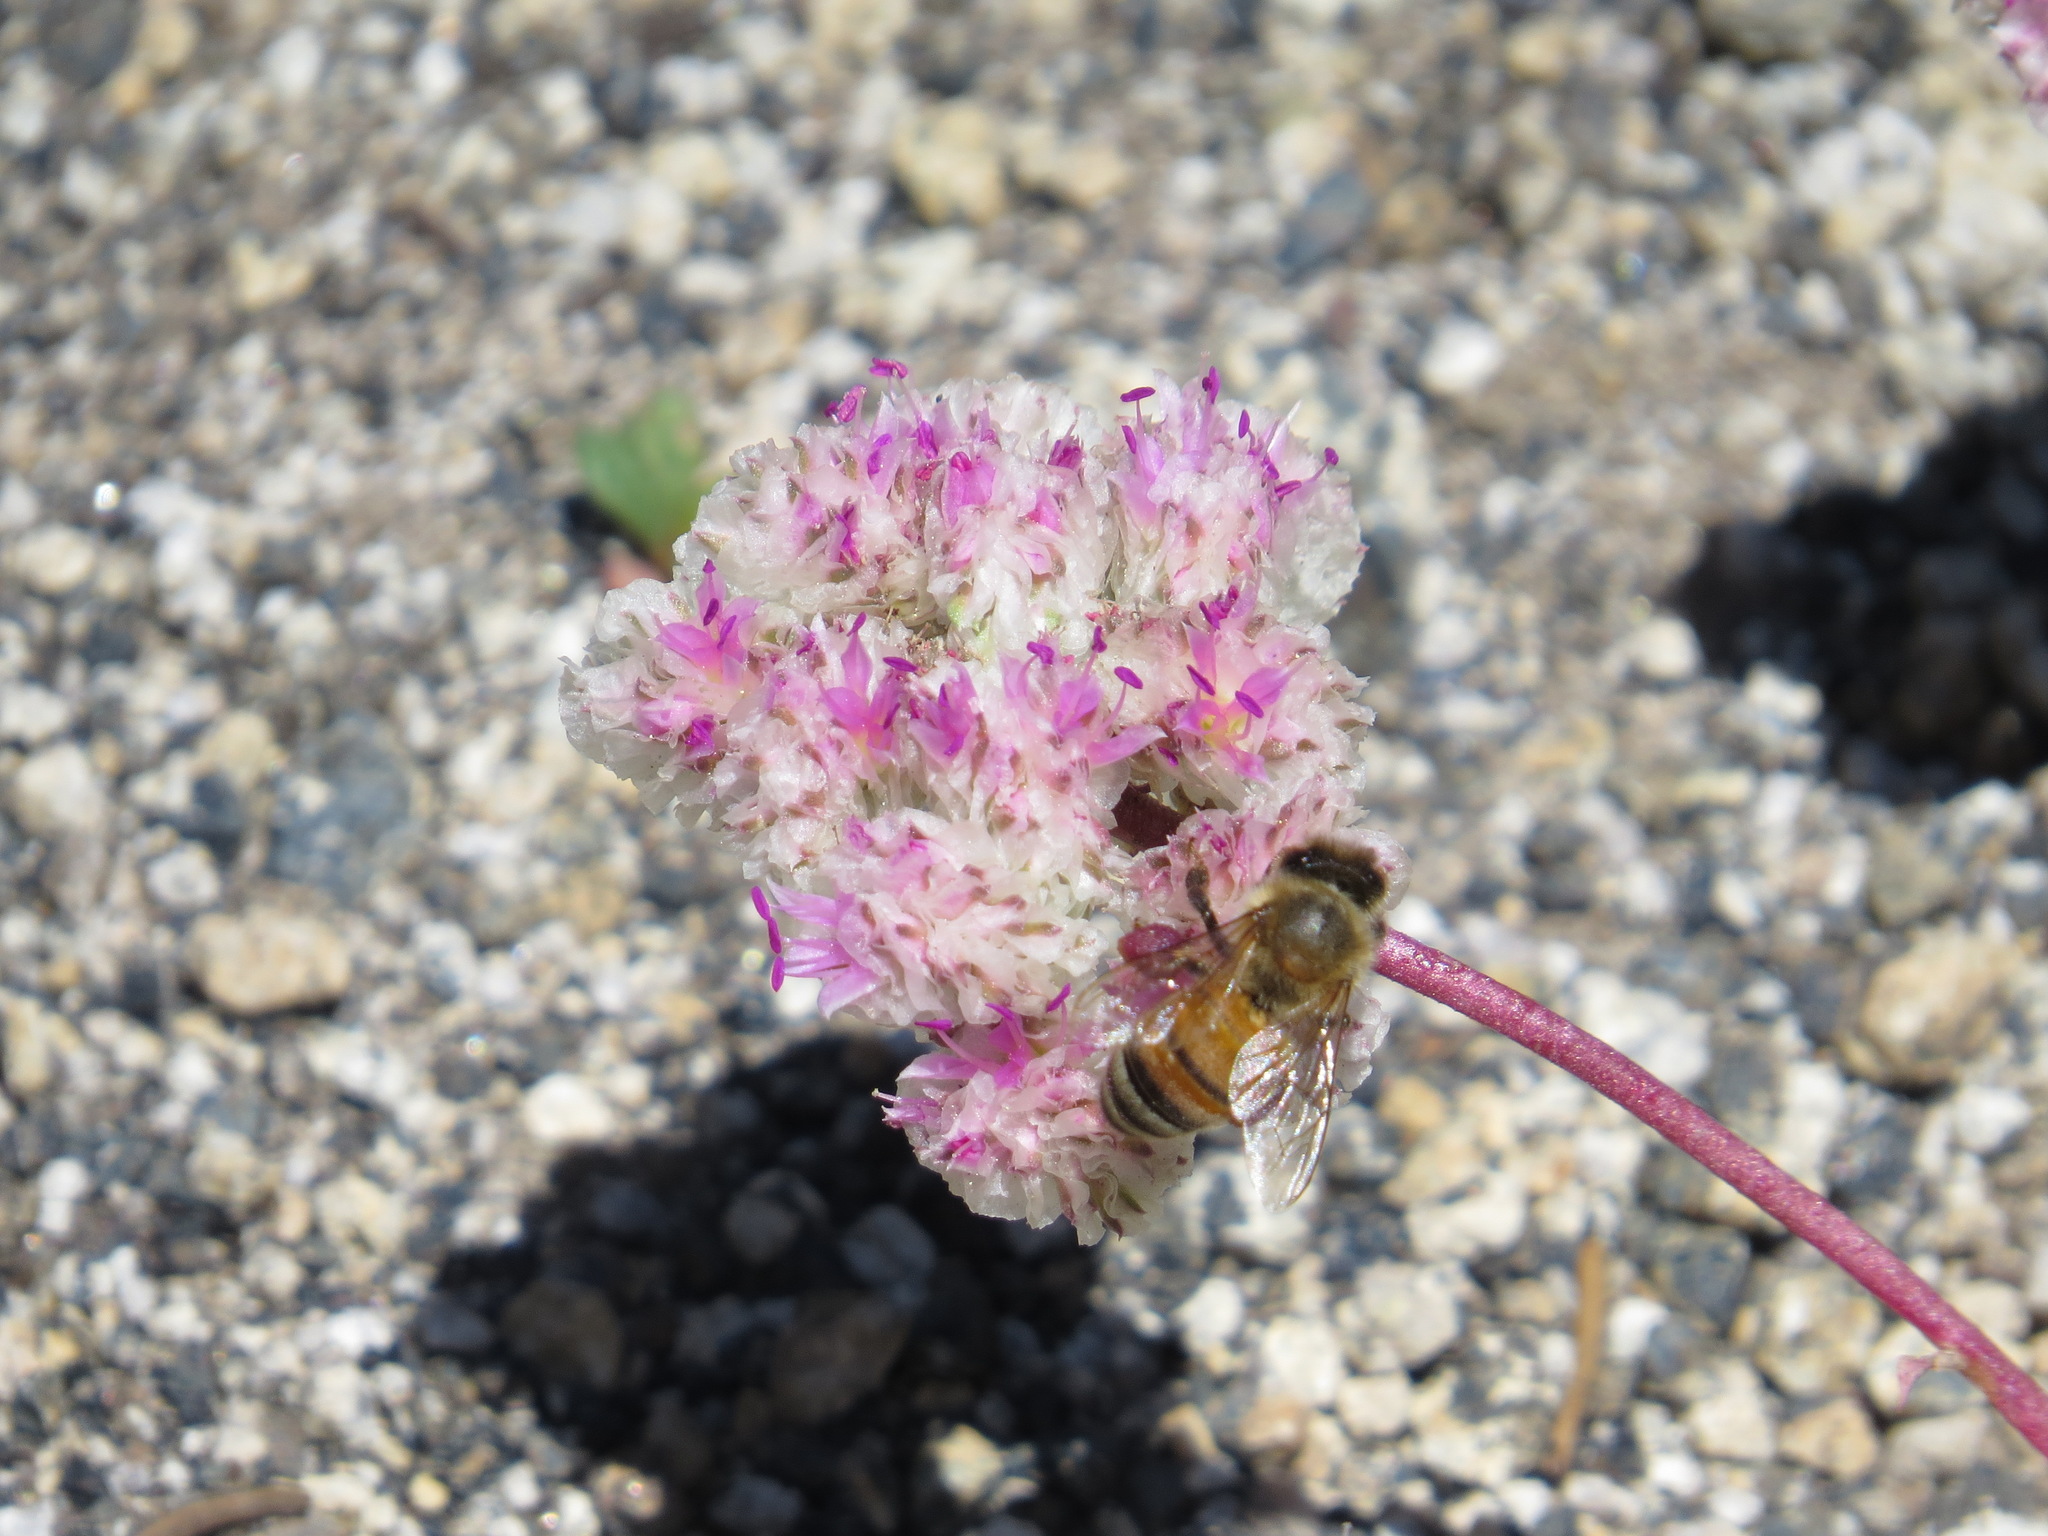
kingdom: Animalia
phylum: Arthropoda
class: Insecta
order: Hymenoptera
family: Apidae
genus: Apis
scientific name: Apis mellifera
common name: Honey bee
